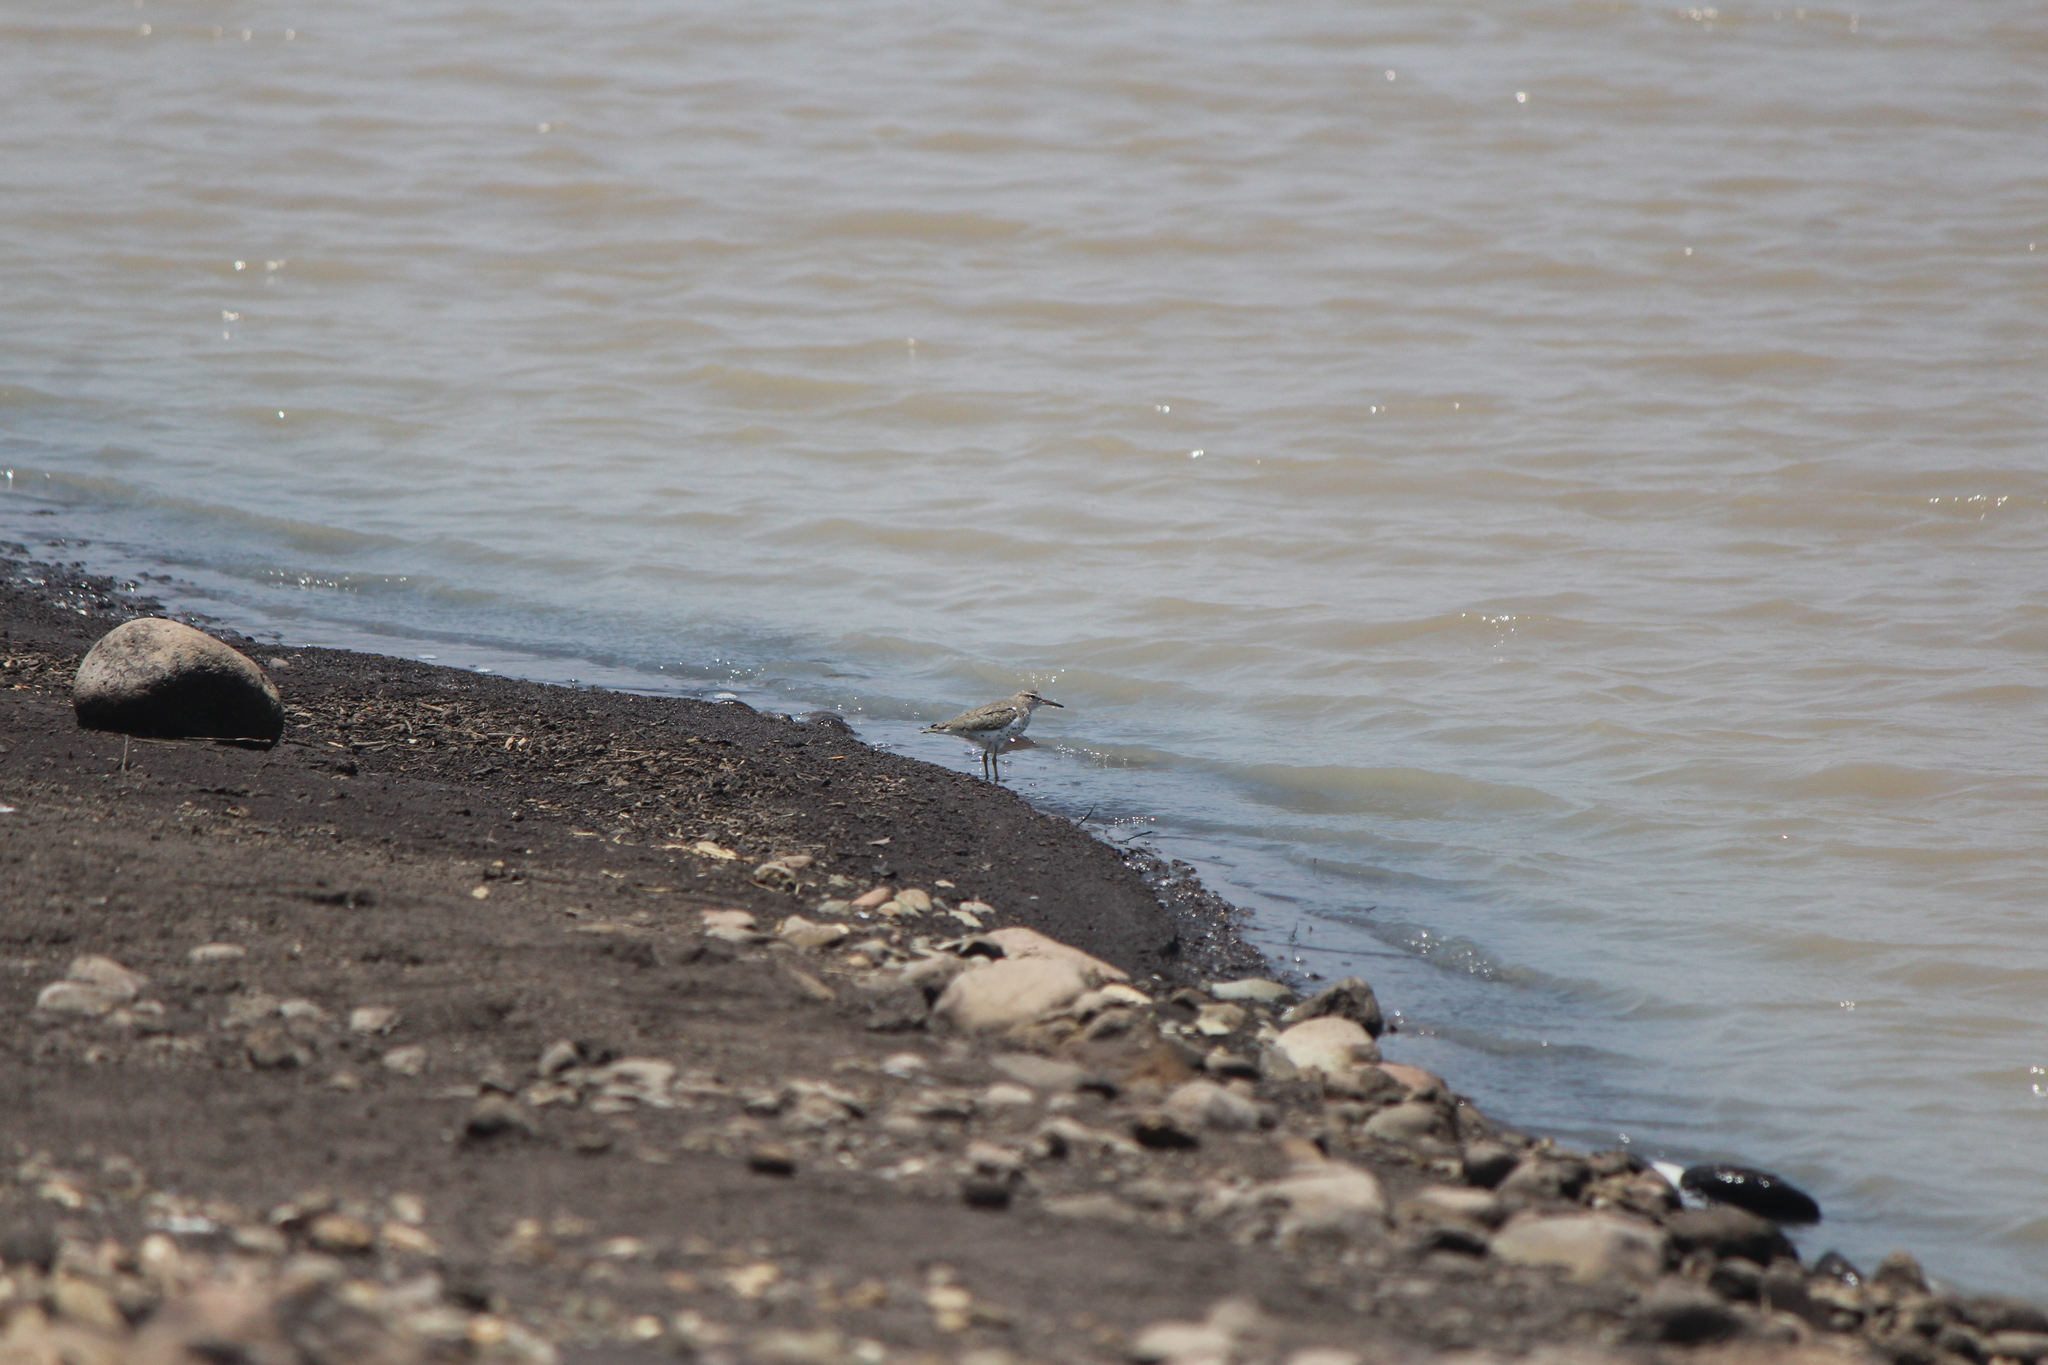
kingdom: Animalia
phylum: Chordata
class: Aves
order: Charadriiformes
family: Scolopacidae
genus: Actitis
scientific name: Actitis macularius
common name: Spotted sandpiper
